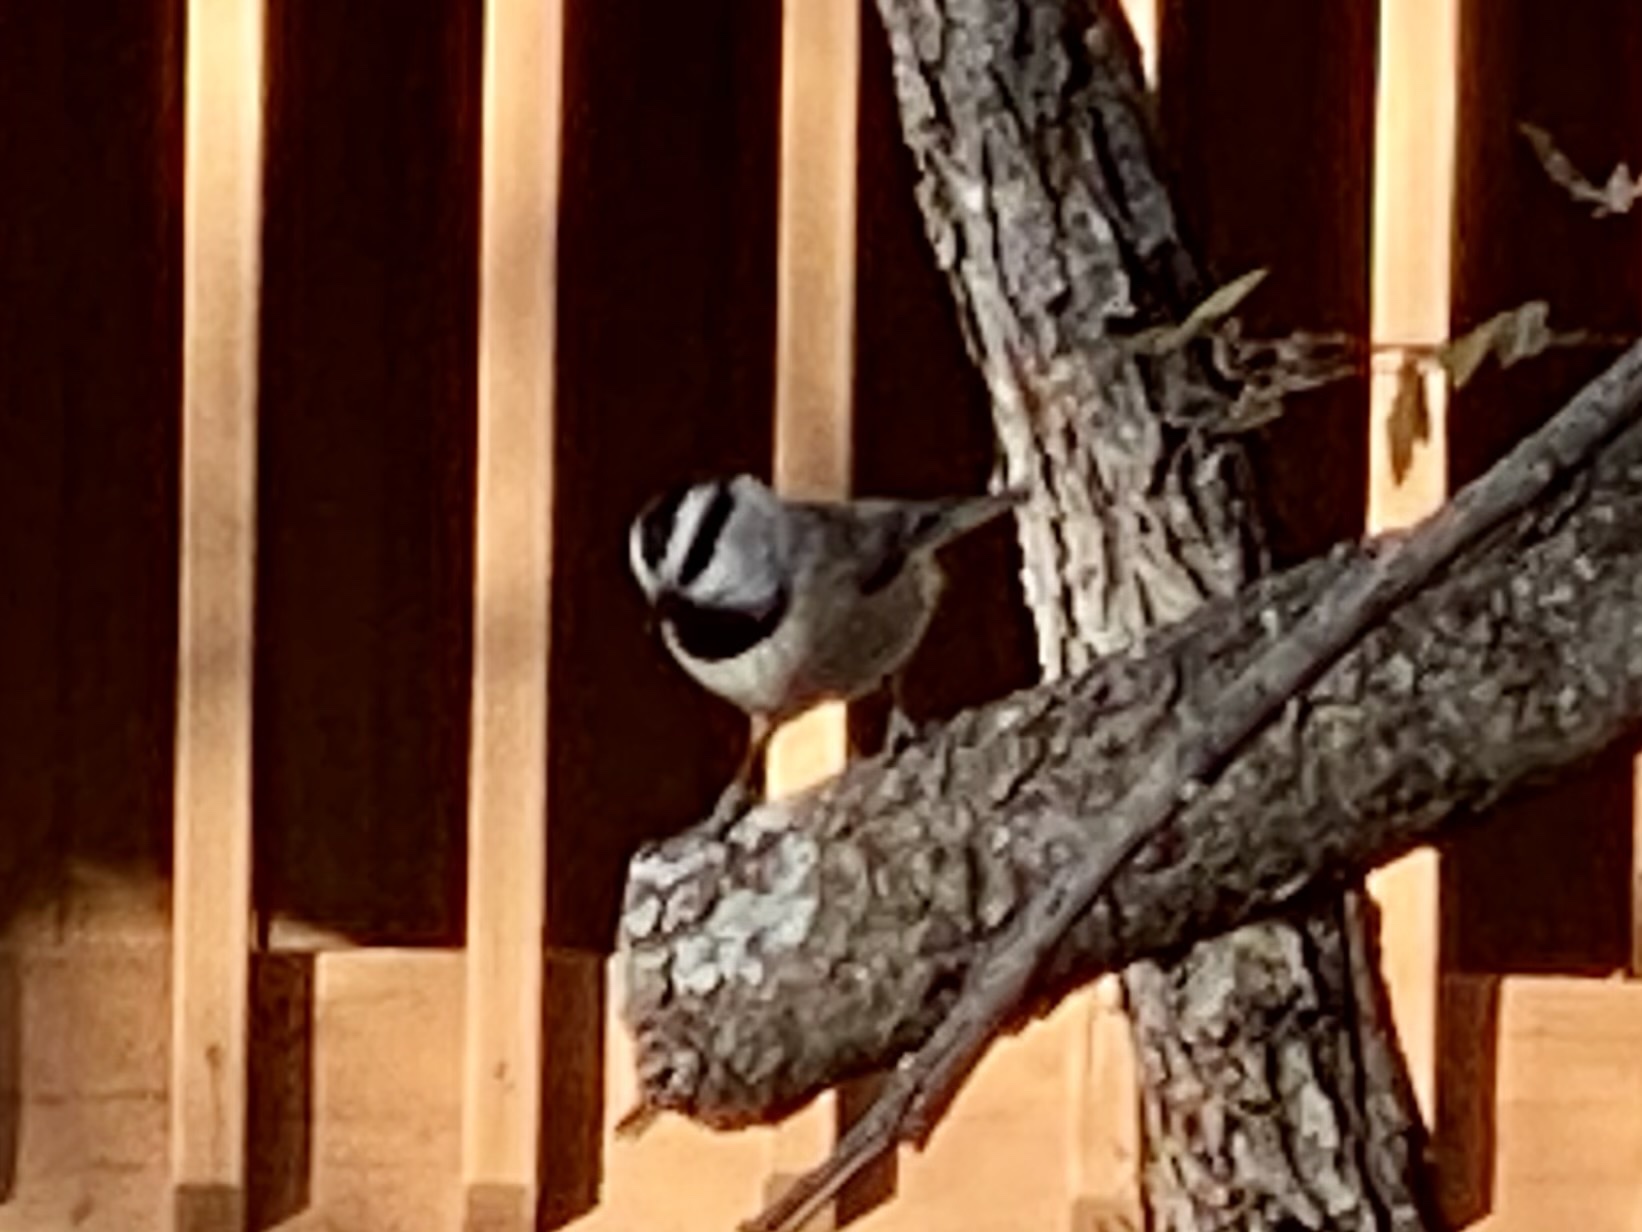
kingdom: Animalia
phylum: Chordata
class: Aves
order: Passeriformes
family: Paridae
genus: Poecile
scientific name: Poecile gambeli
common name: Mountain chickadee
